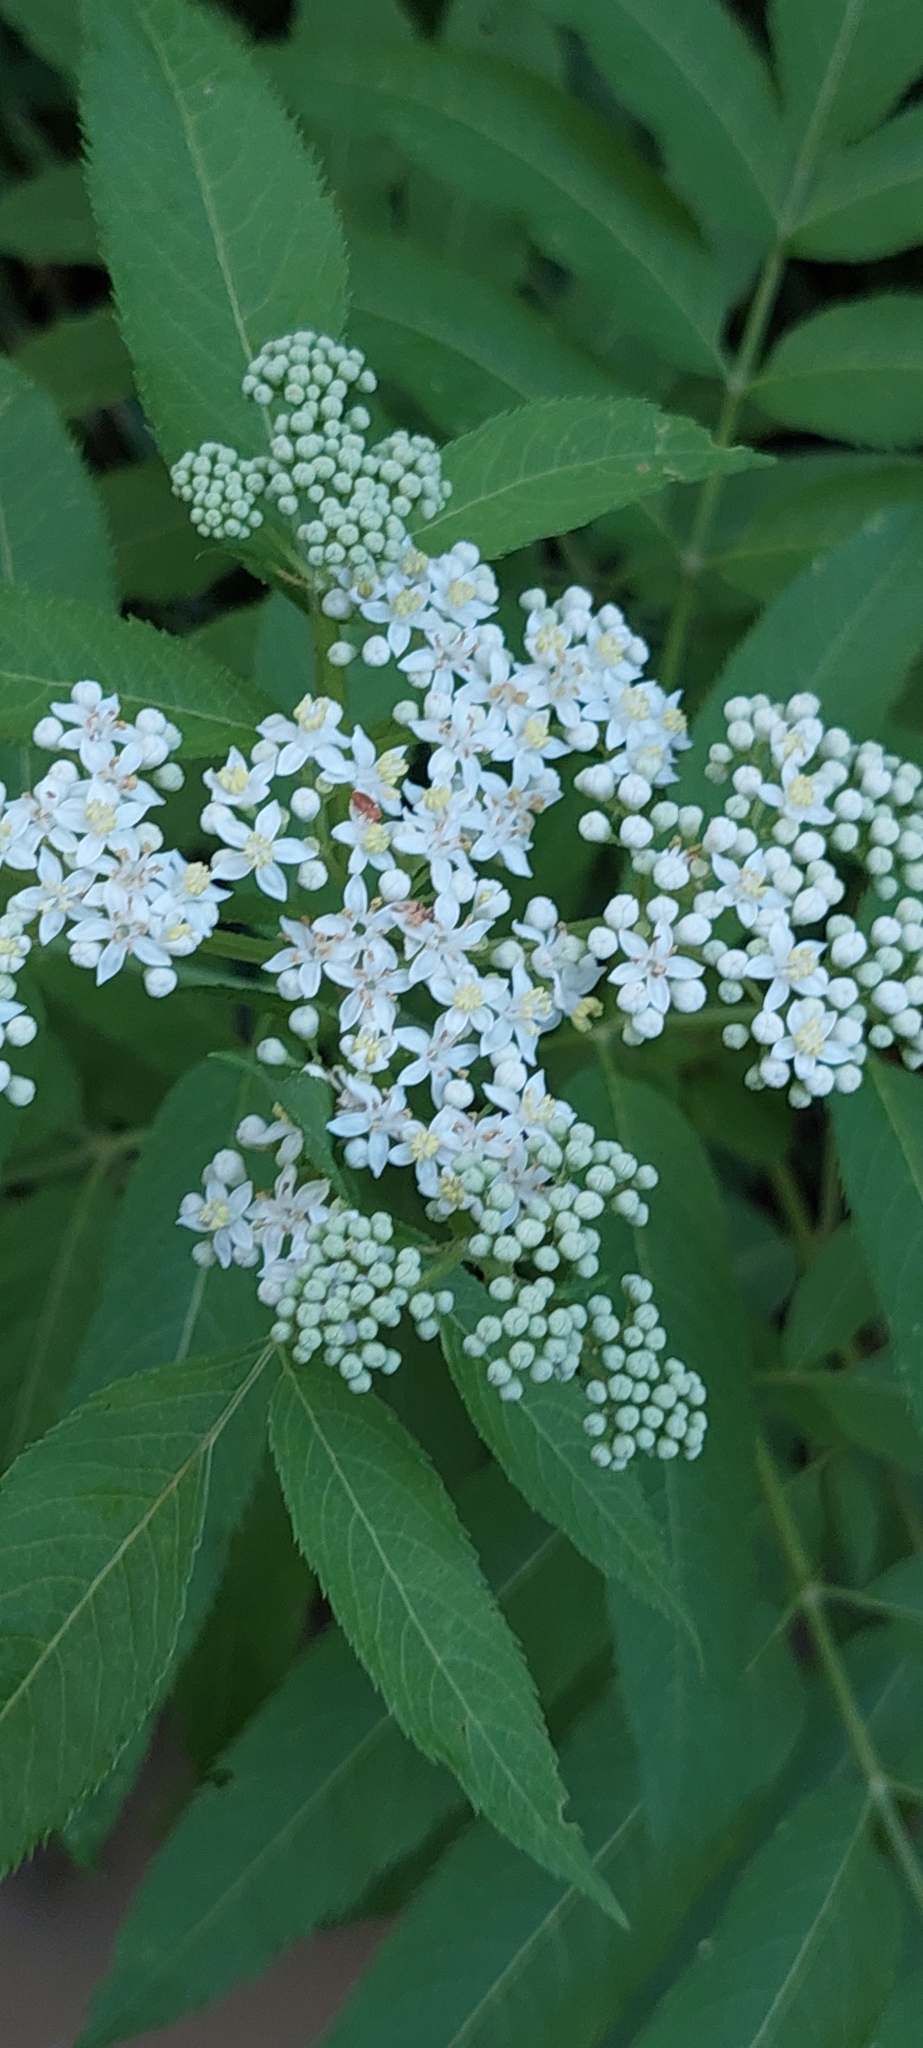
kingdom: Plantae
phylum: Tracheophyta
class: Magnoliopsida
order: Dipsacales
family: Viburnaceae
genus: Sambucus
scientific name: Sambucus ebulus
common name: Dwarf elder
